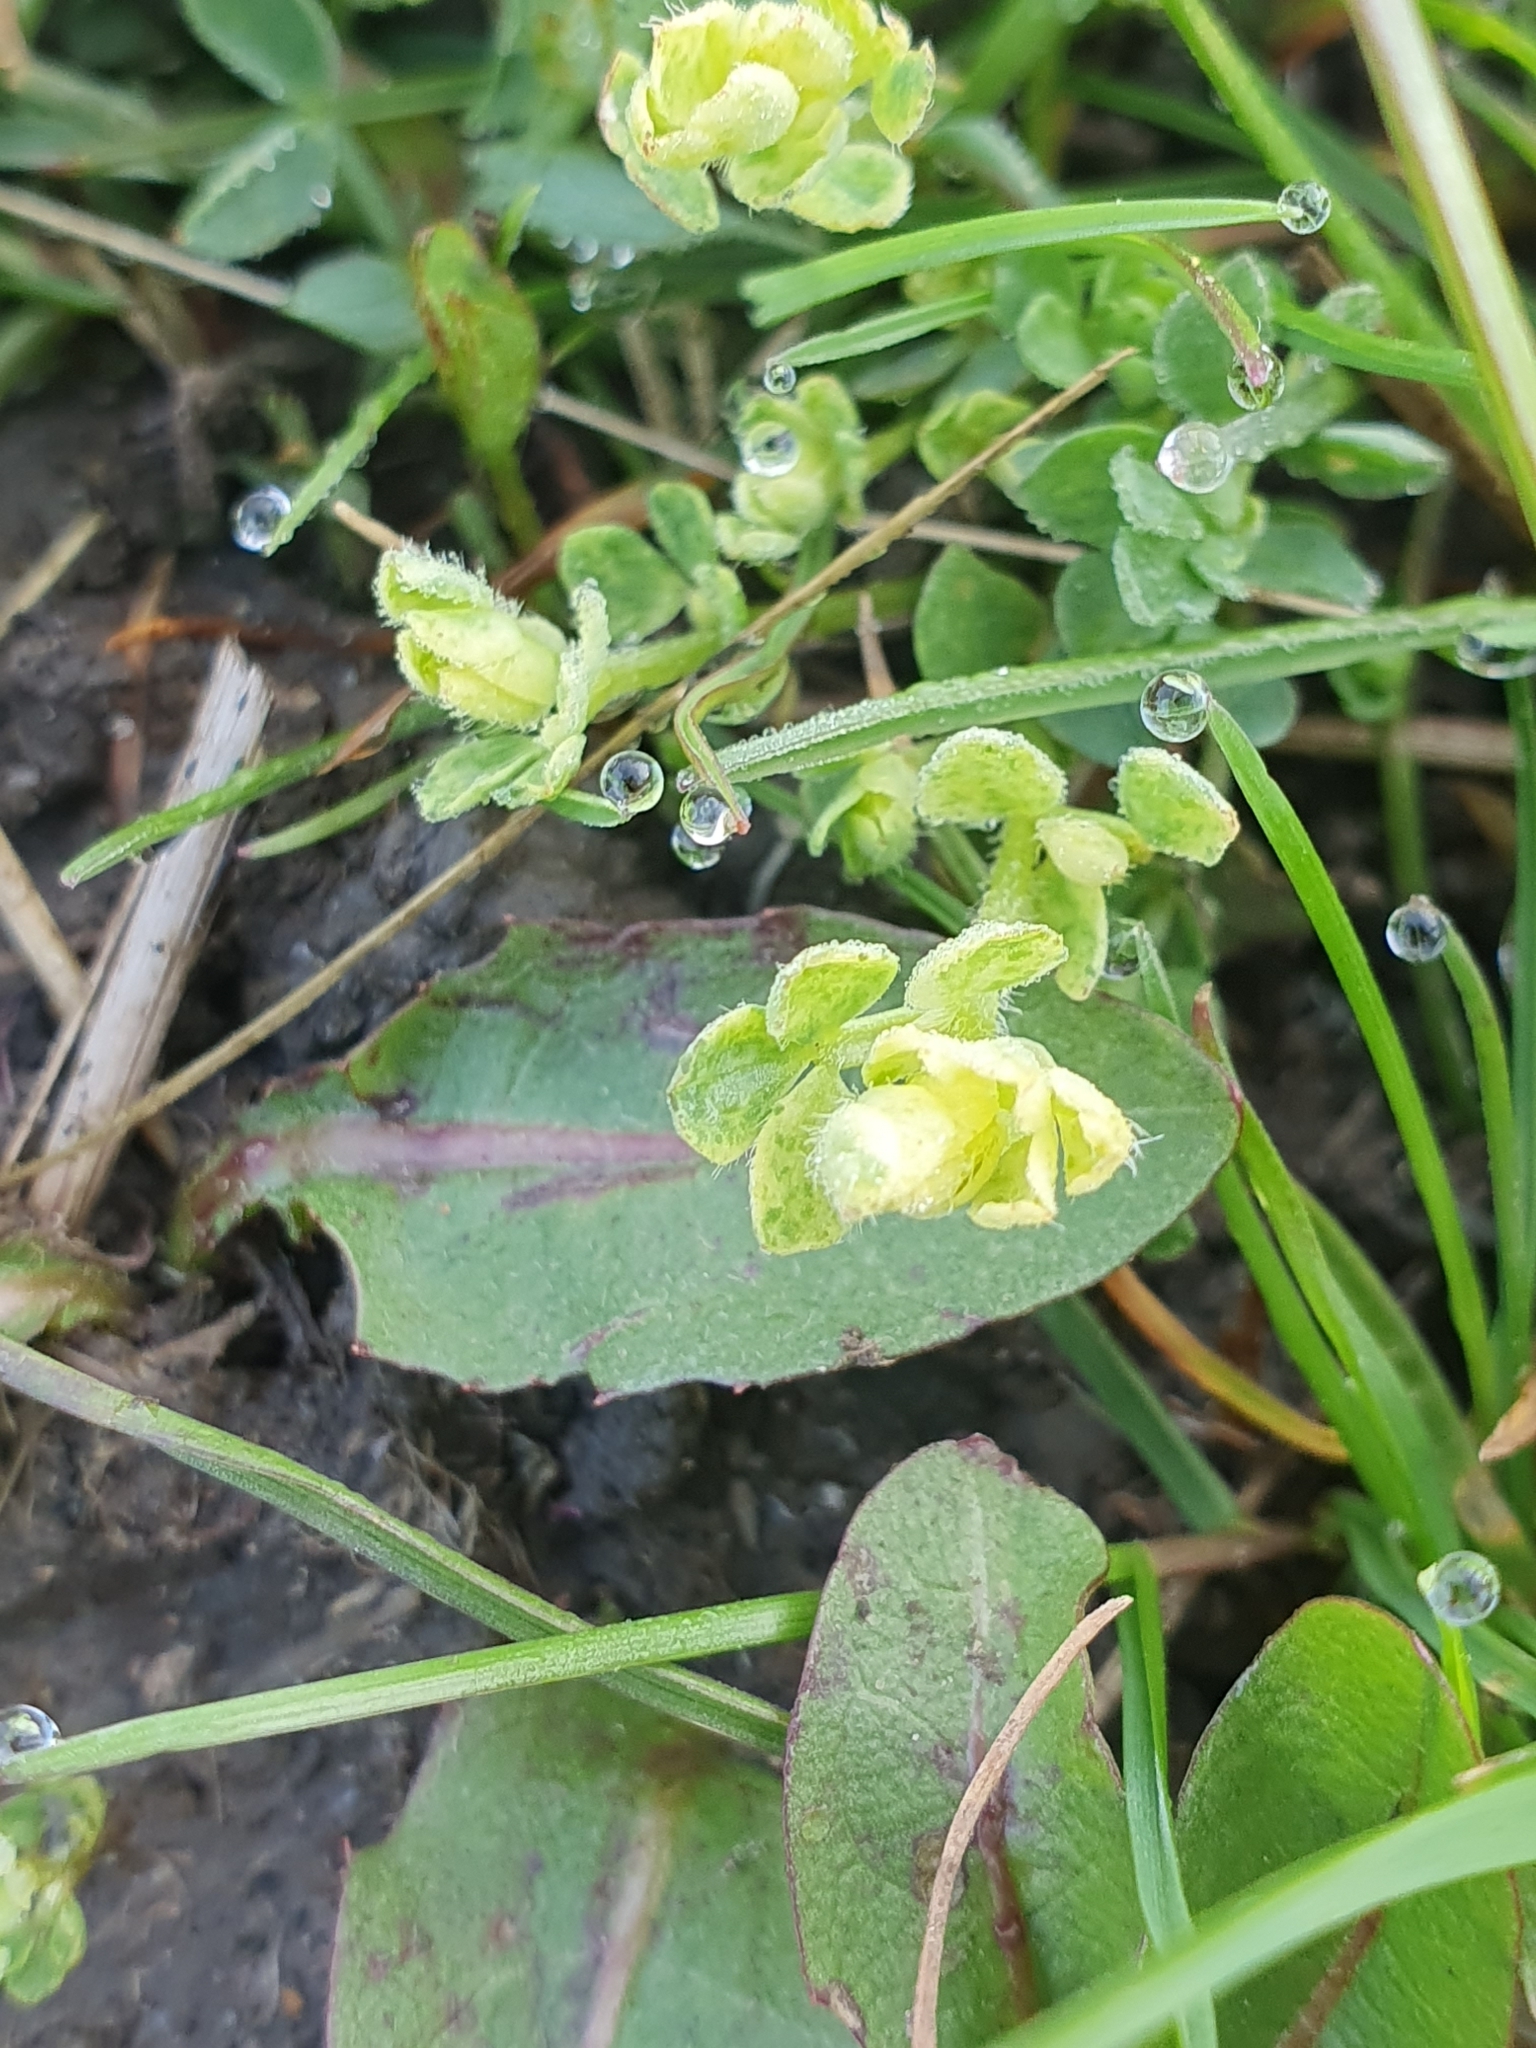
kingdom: Plantae
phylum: Tracheophyta
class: Magnoliopsida
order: Fabales
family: Fabaceae
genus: Lotus
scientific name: Lotus corniculatus
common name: Common bird's-foot-trefoil
